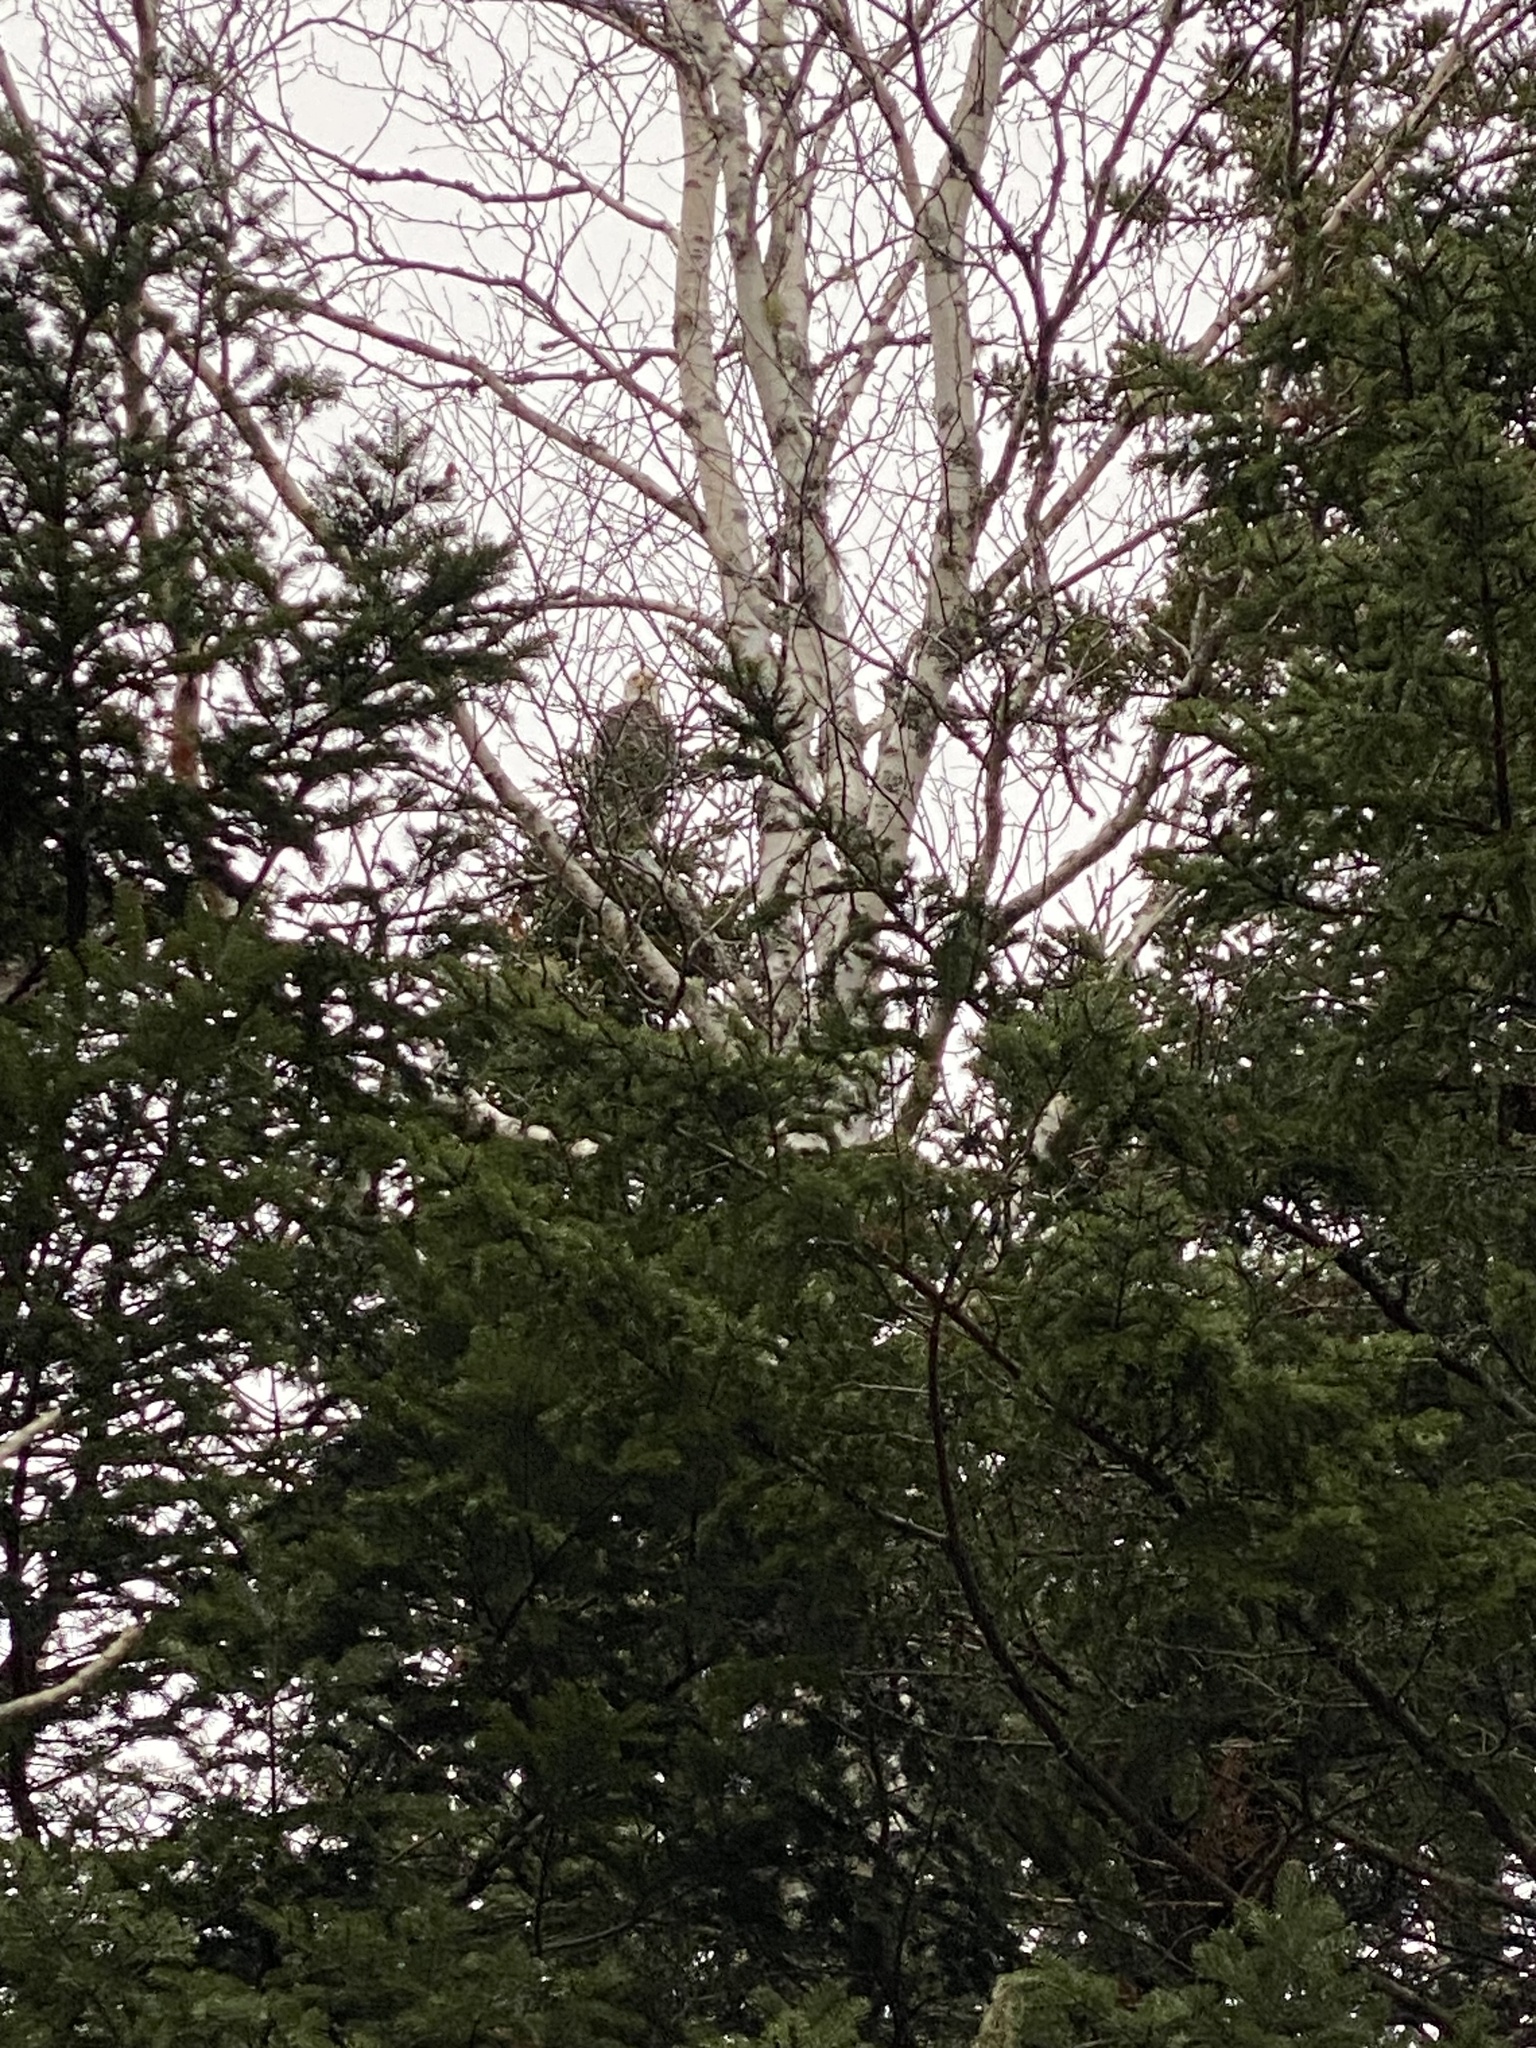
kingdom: Animalia
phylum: Chordata
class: Aves
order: Accipitriformes
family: Accipitridae
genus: Haliaeetus
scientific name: Haliaeetus leucocephalus
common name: Bald eagle
